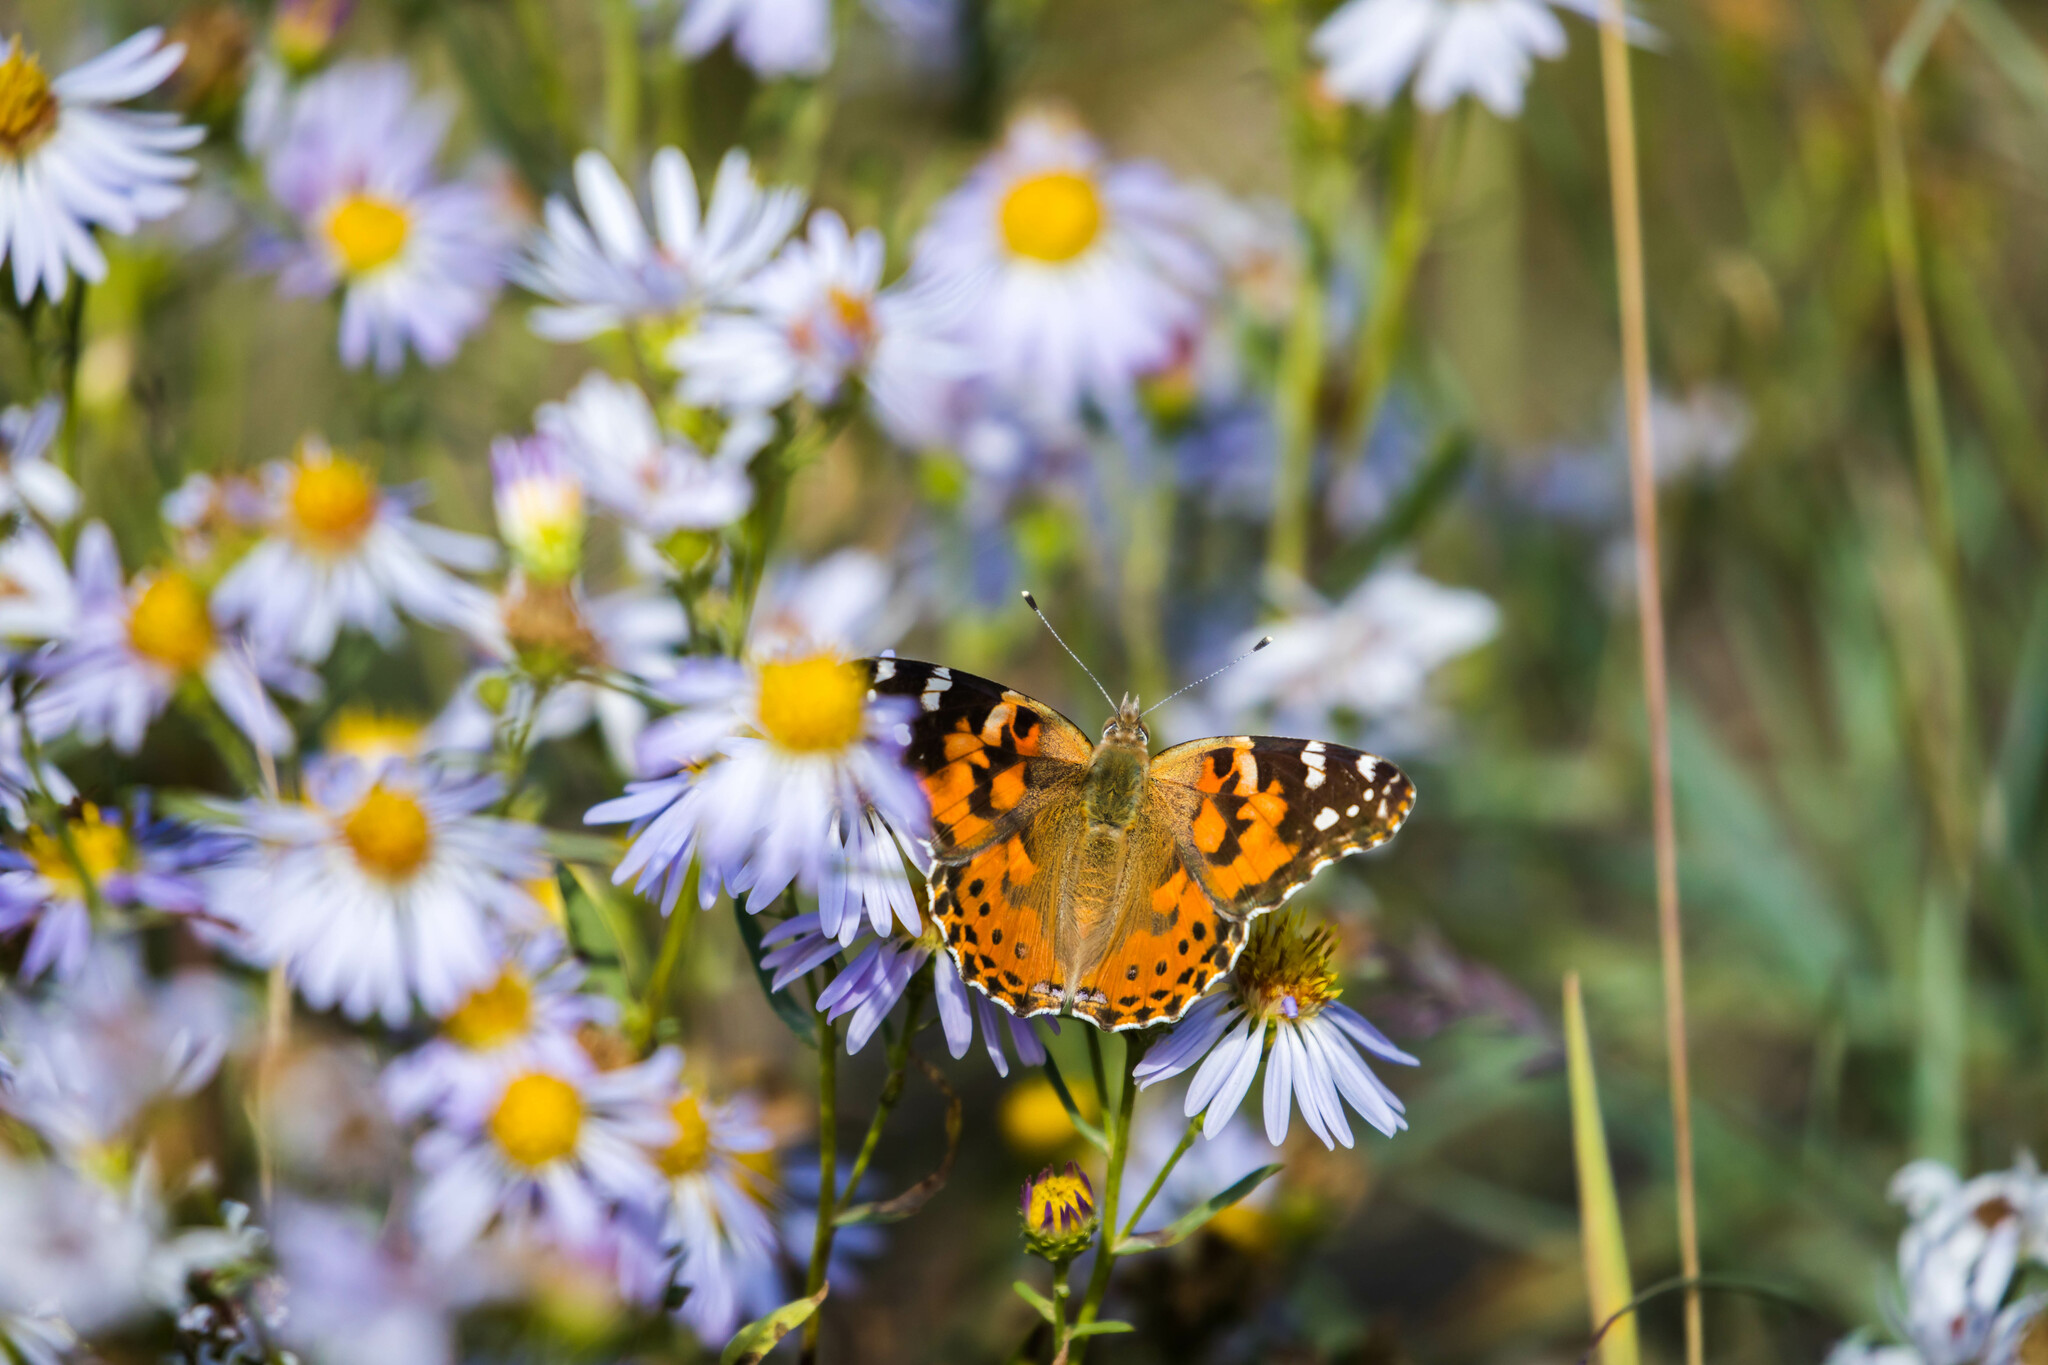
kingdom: Animalia
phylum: Arthropoda
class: Insecta
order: Lepidoptera
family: Nymphalidae
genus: Vanessa
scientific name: Vanessa cardui
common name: Painted lady
